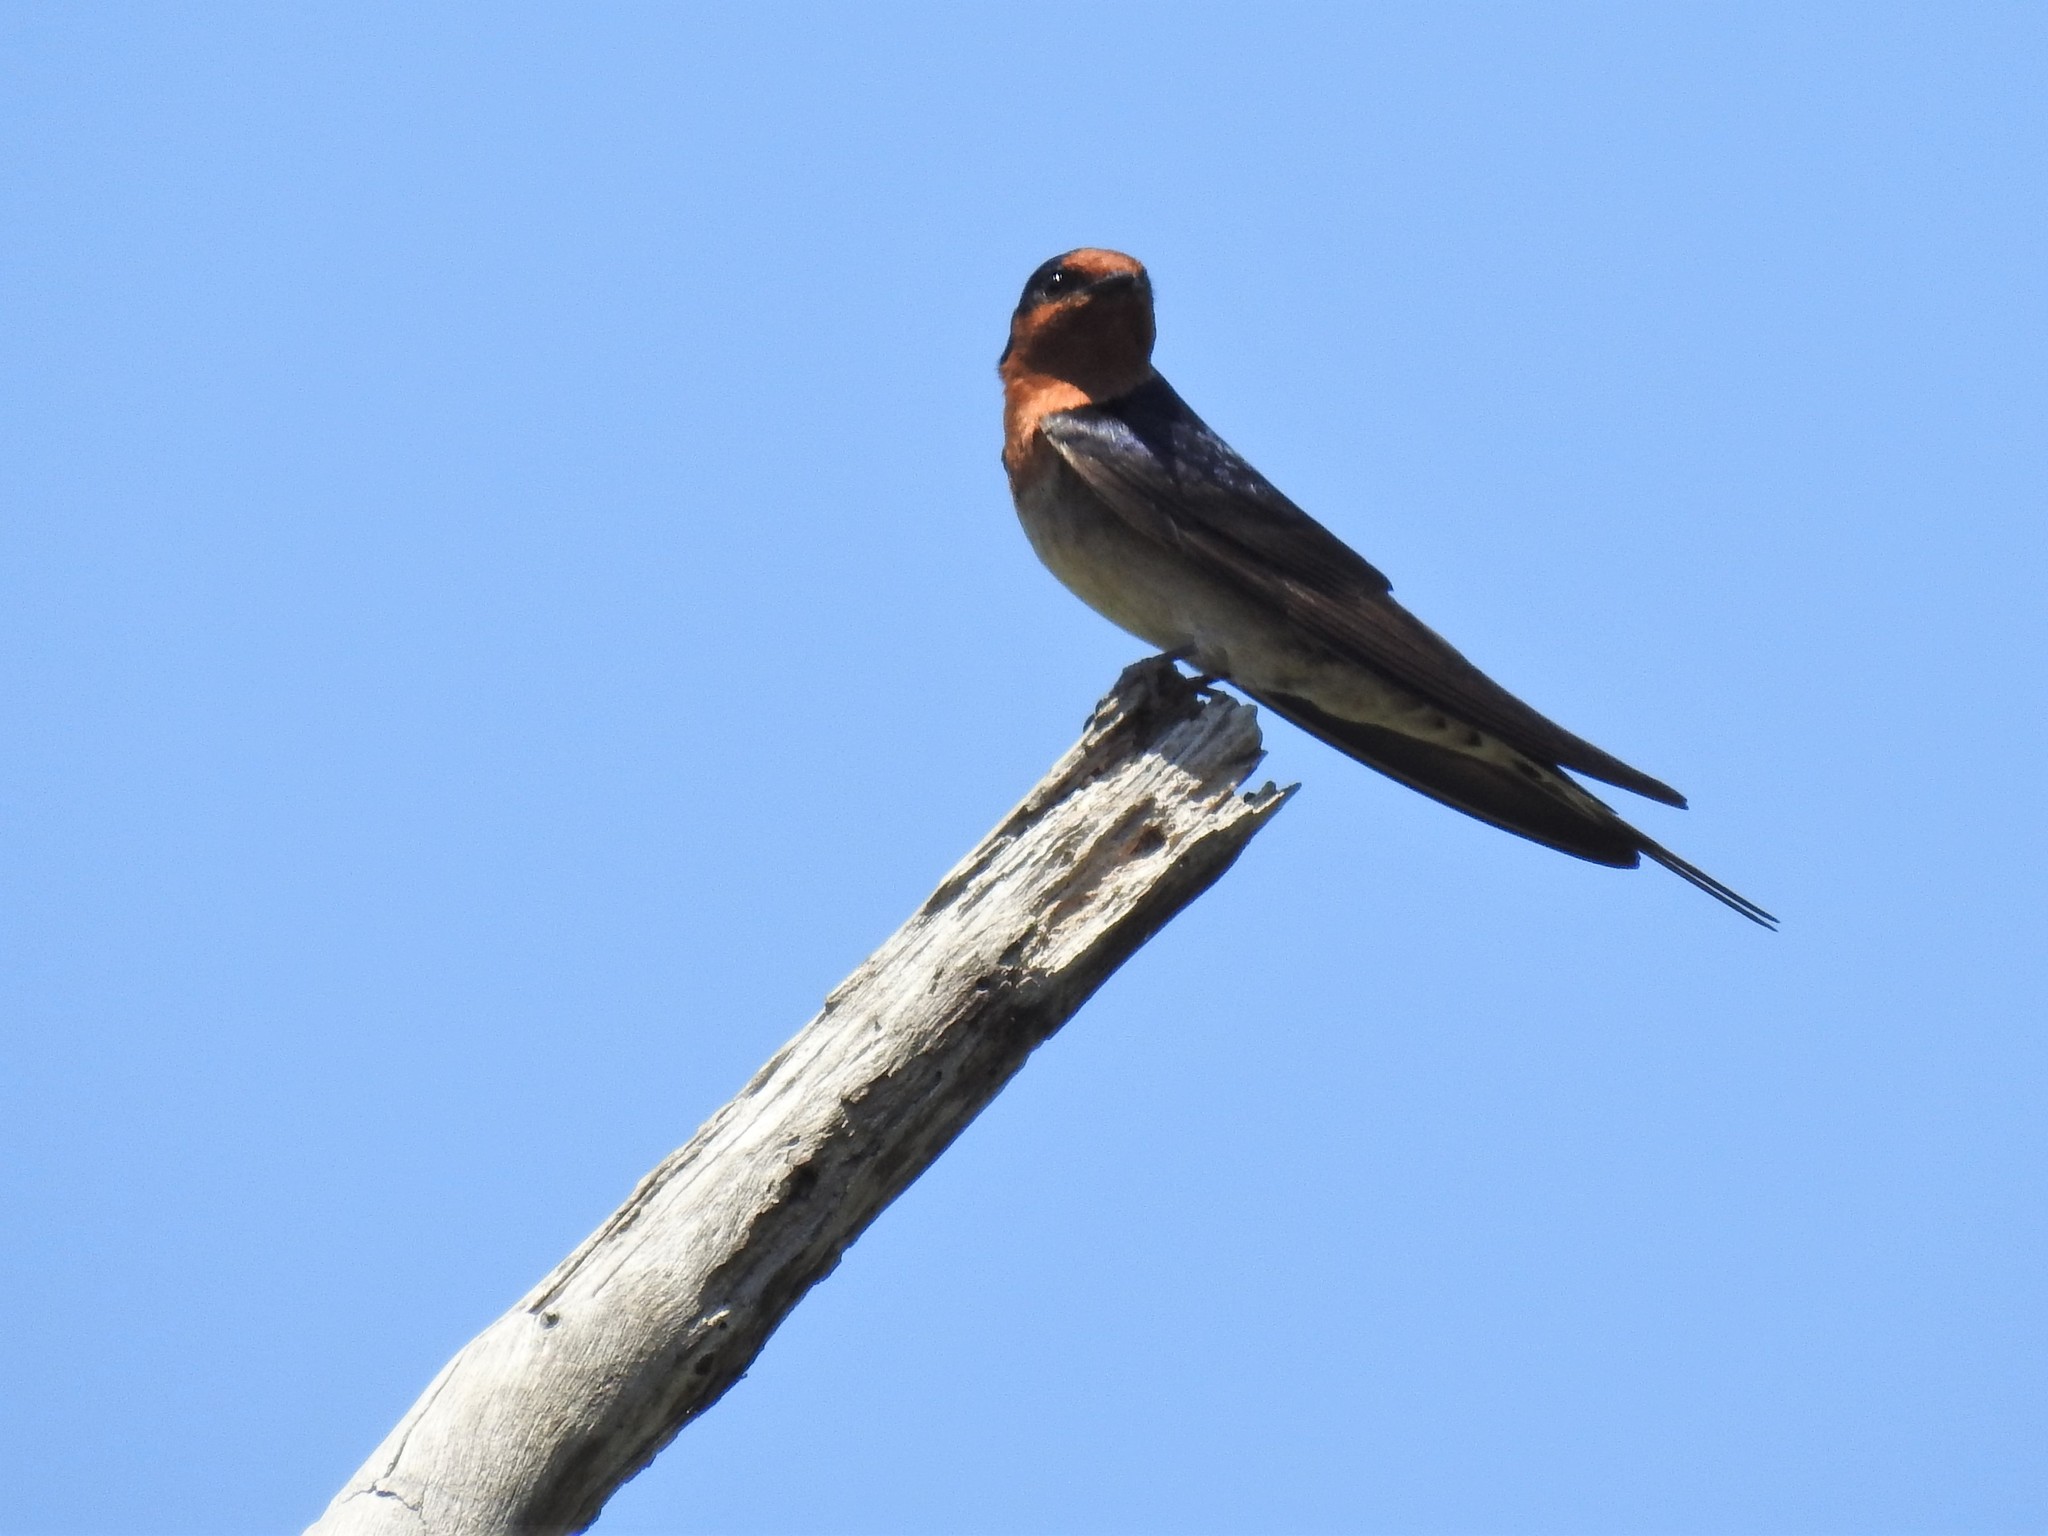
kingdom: Animalia
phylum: Chordata
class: Aves
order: Passeriformes
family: Hirundinidae
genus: Hirundo
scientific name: Hirundo neoxena
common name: Welcome swallow
